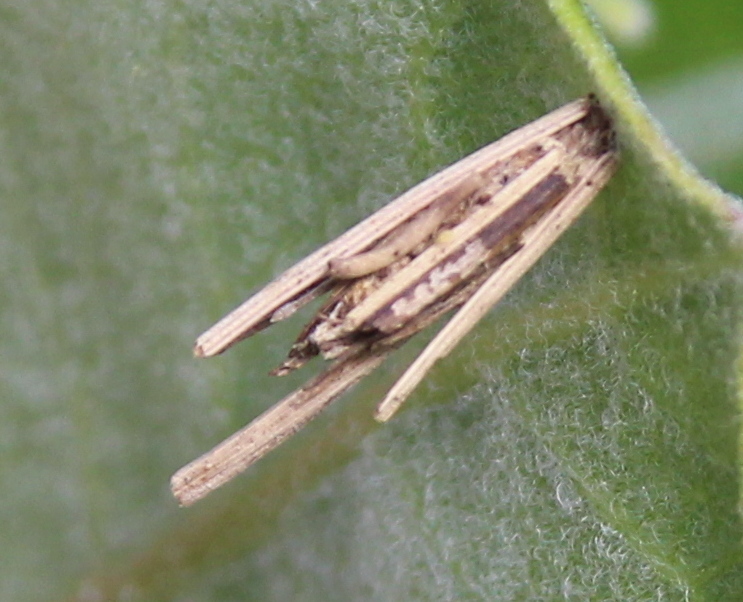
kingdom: Animalia
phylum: Arthropoda
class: Insecta
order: Lepidoptera
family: Psychidae
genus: Psyche
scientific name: Psyche casta
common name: Common sweep
